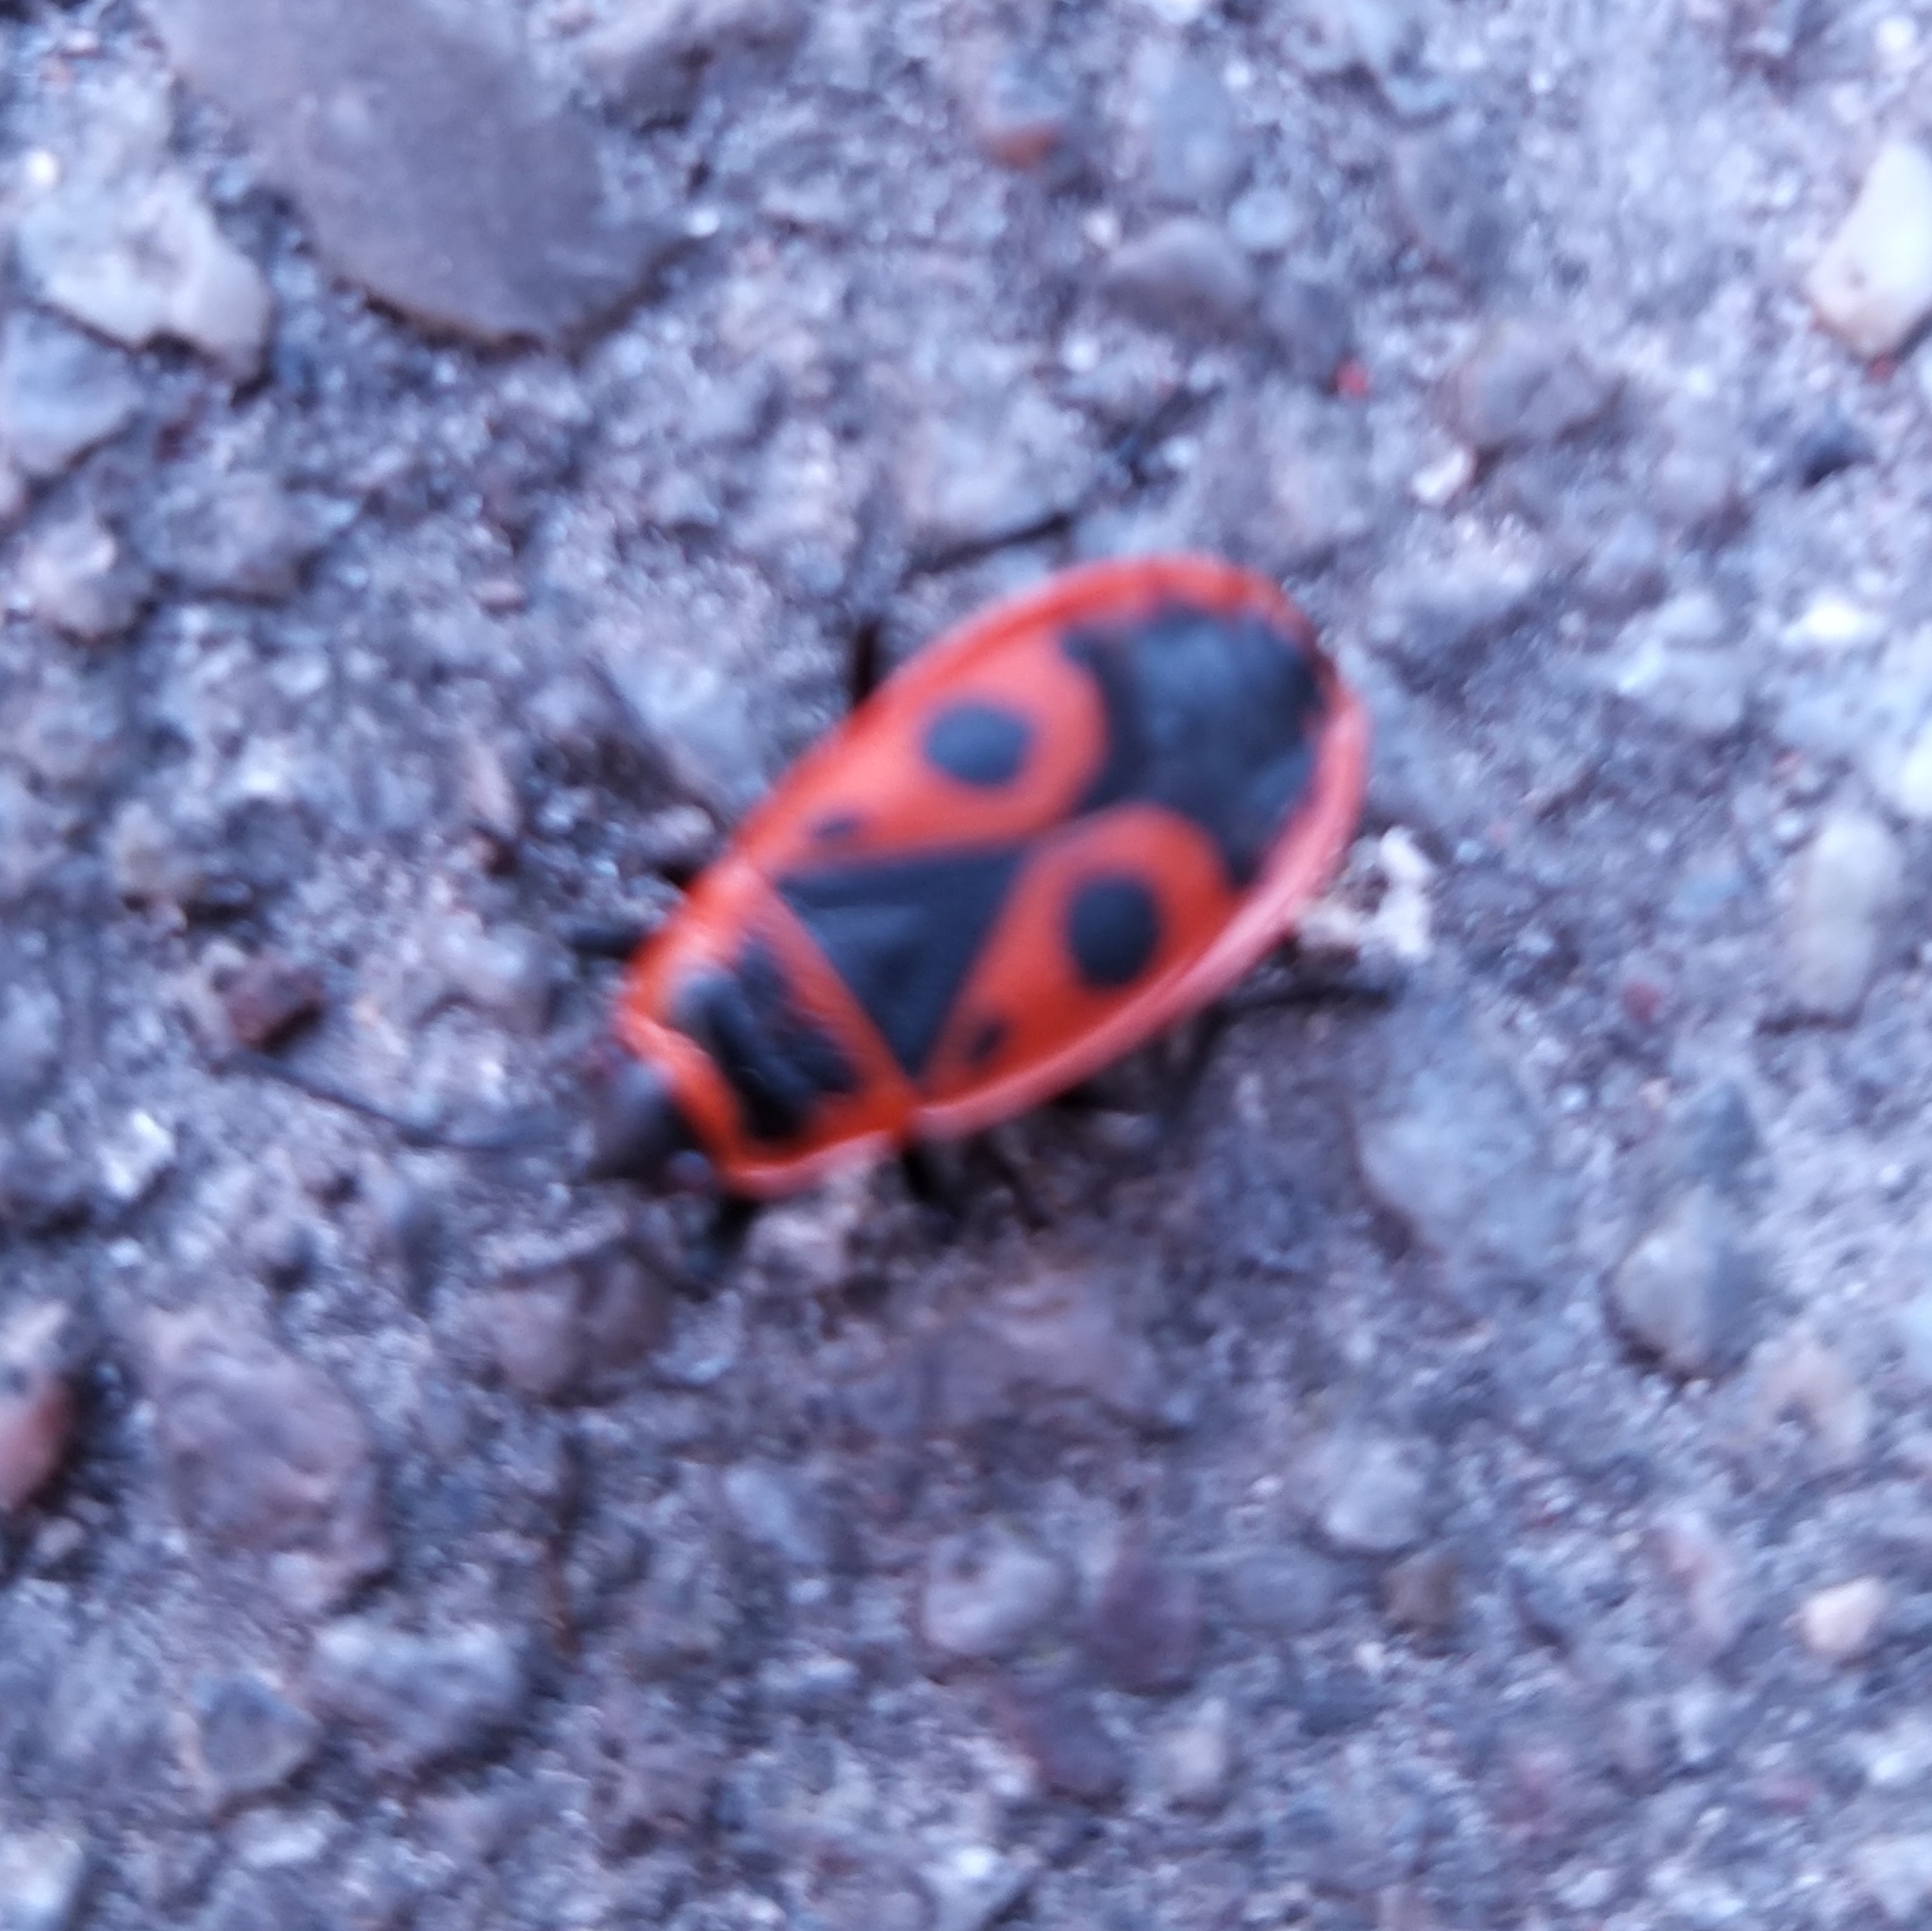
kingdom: Animalia
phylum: Arthropoda
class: Insecta
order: Hemiptera
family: Pyrrhocoridae
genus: Pyrrhocoris
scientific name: Pyrrhocoris apterus
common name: Firebug
